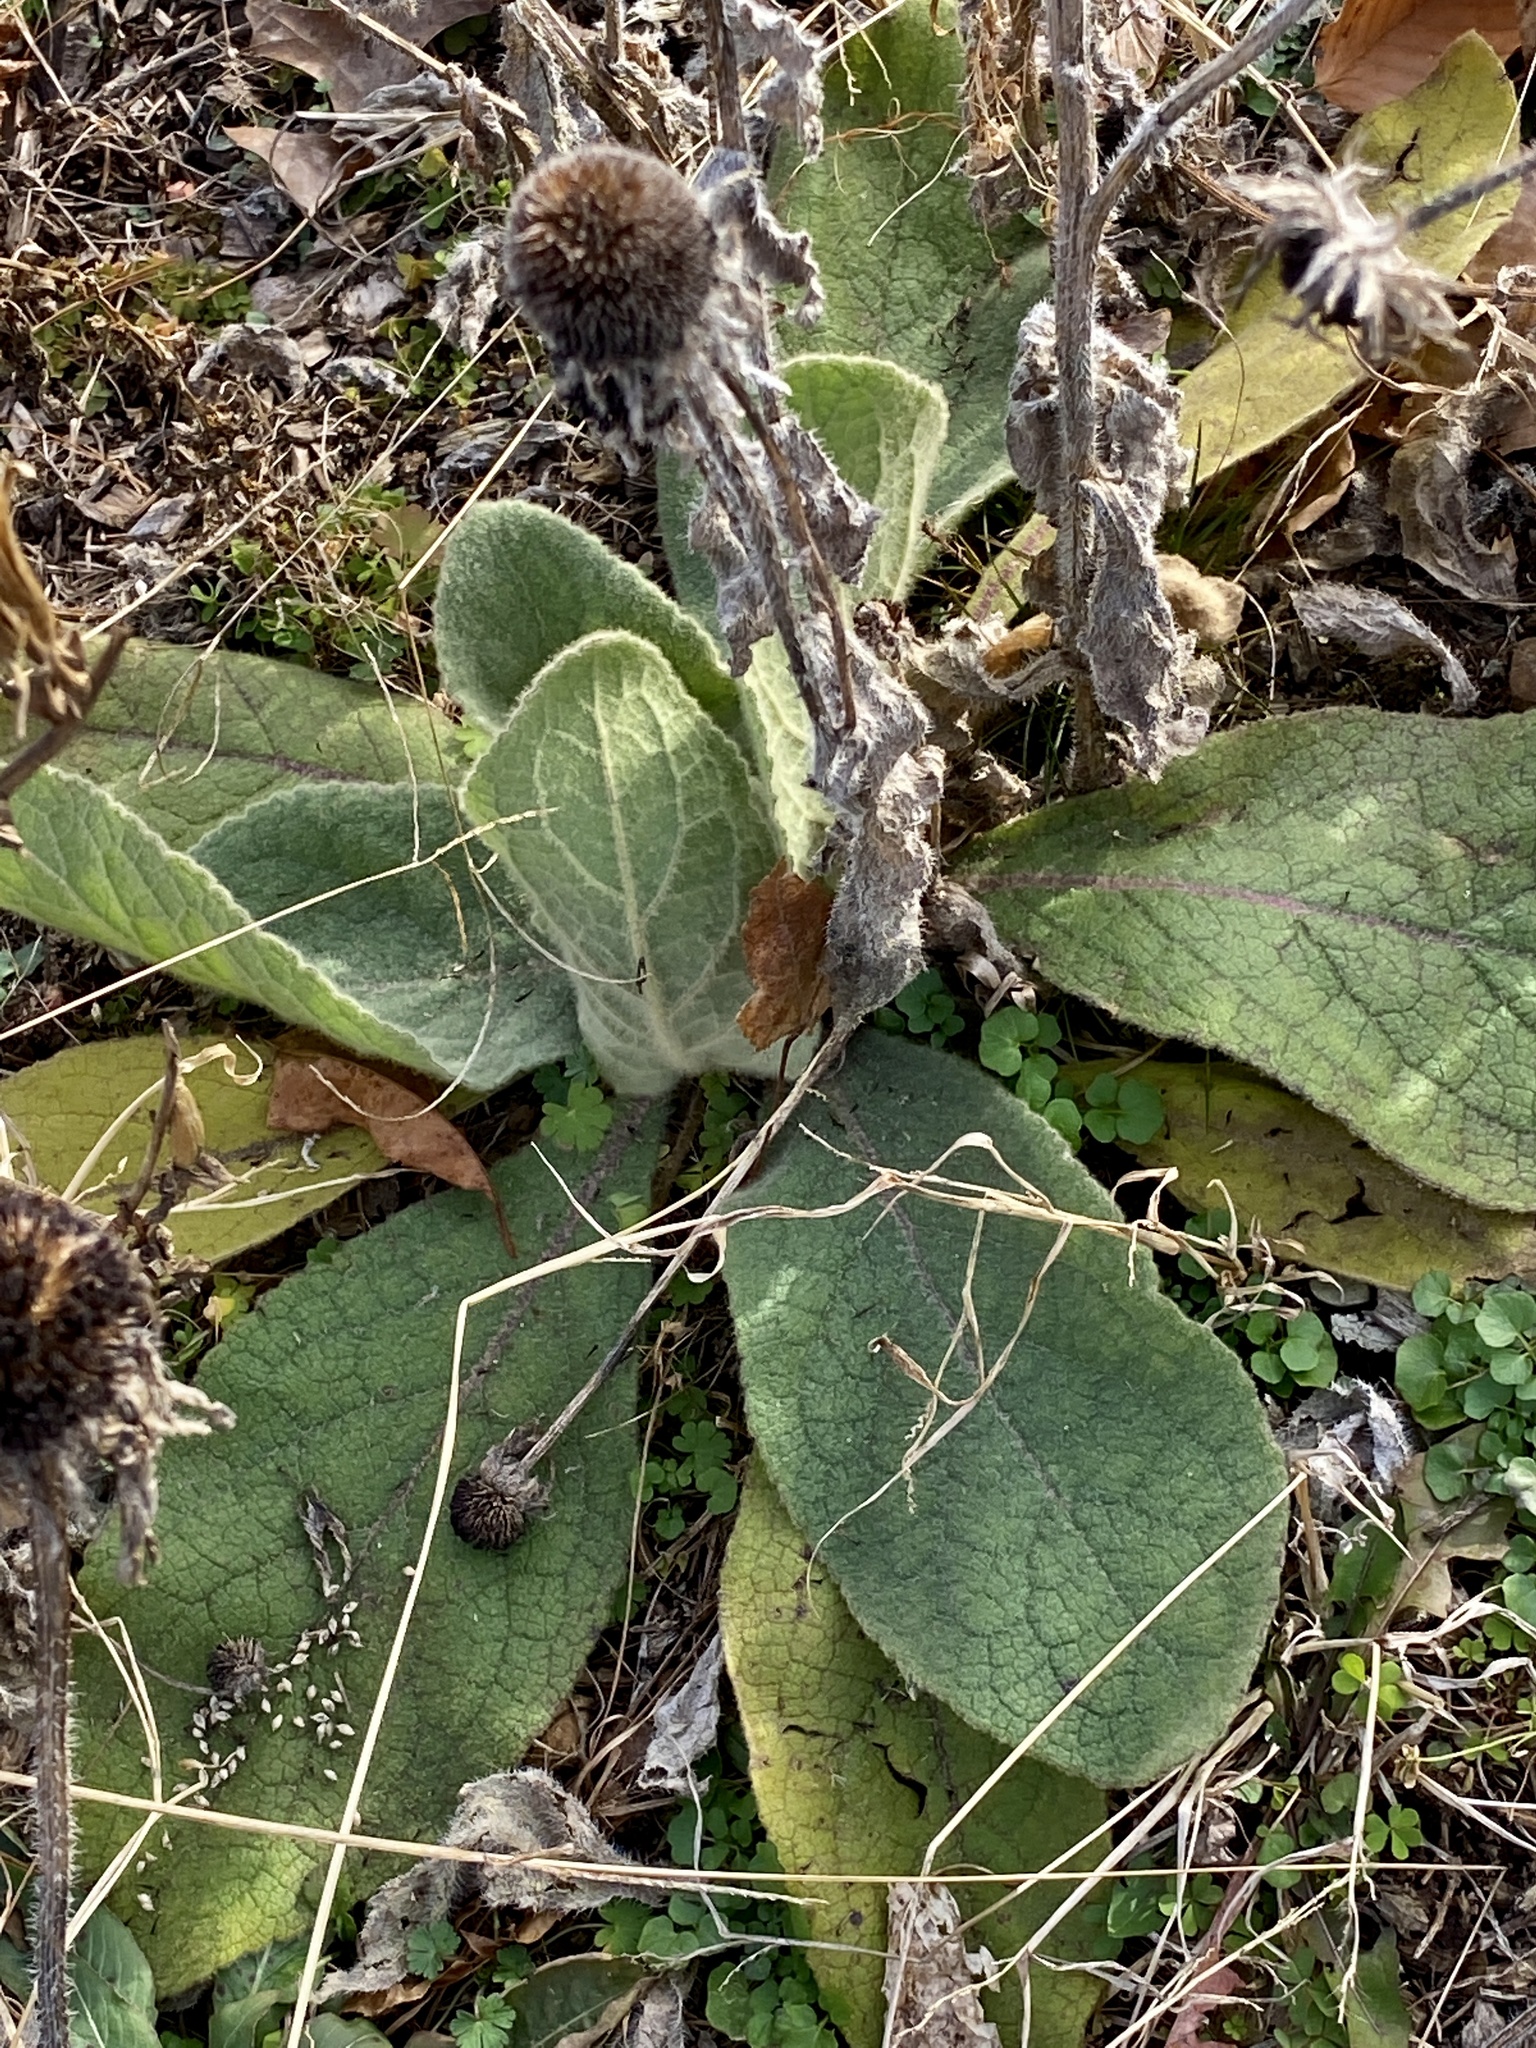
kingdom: Plantae
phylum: Tracheophyta
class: Magnoliopsida
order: Lamiales
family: Scrophulariaceae
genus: Verbascum
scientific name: Verbascum thapsus
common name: Common mullein
